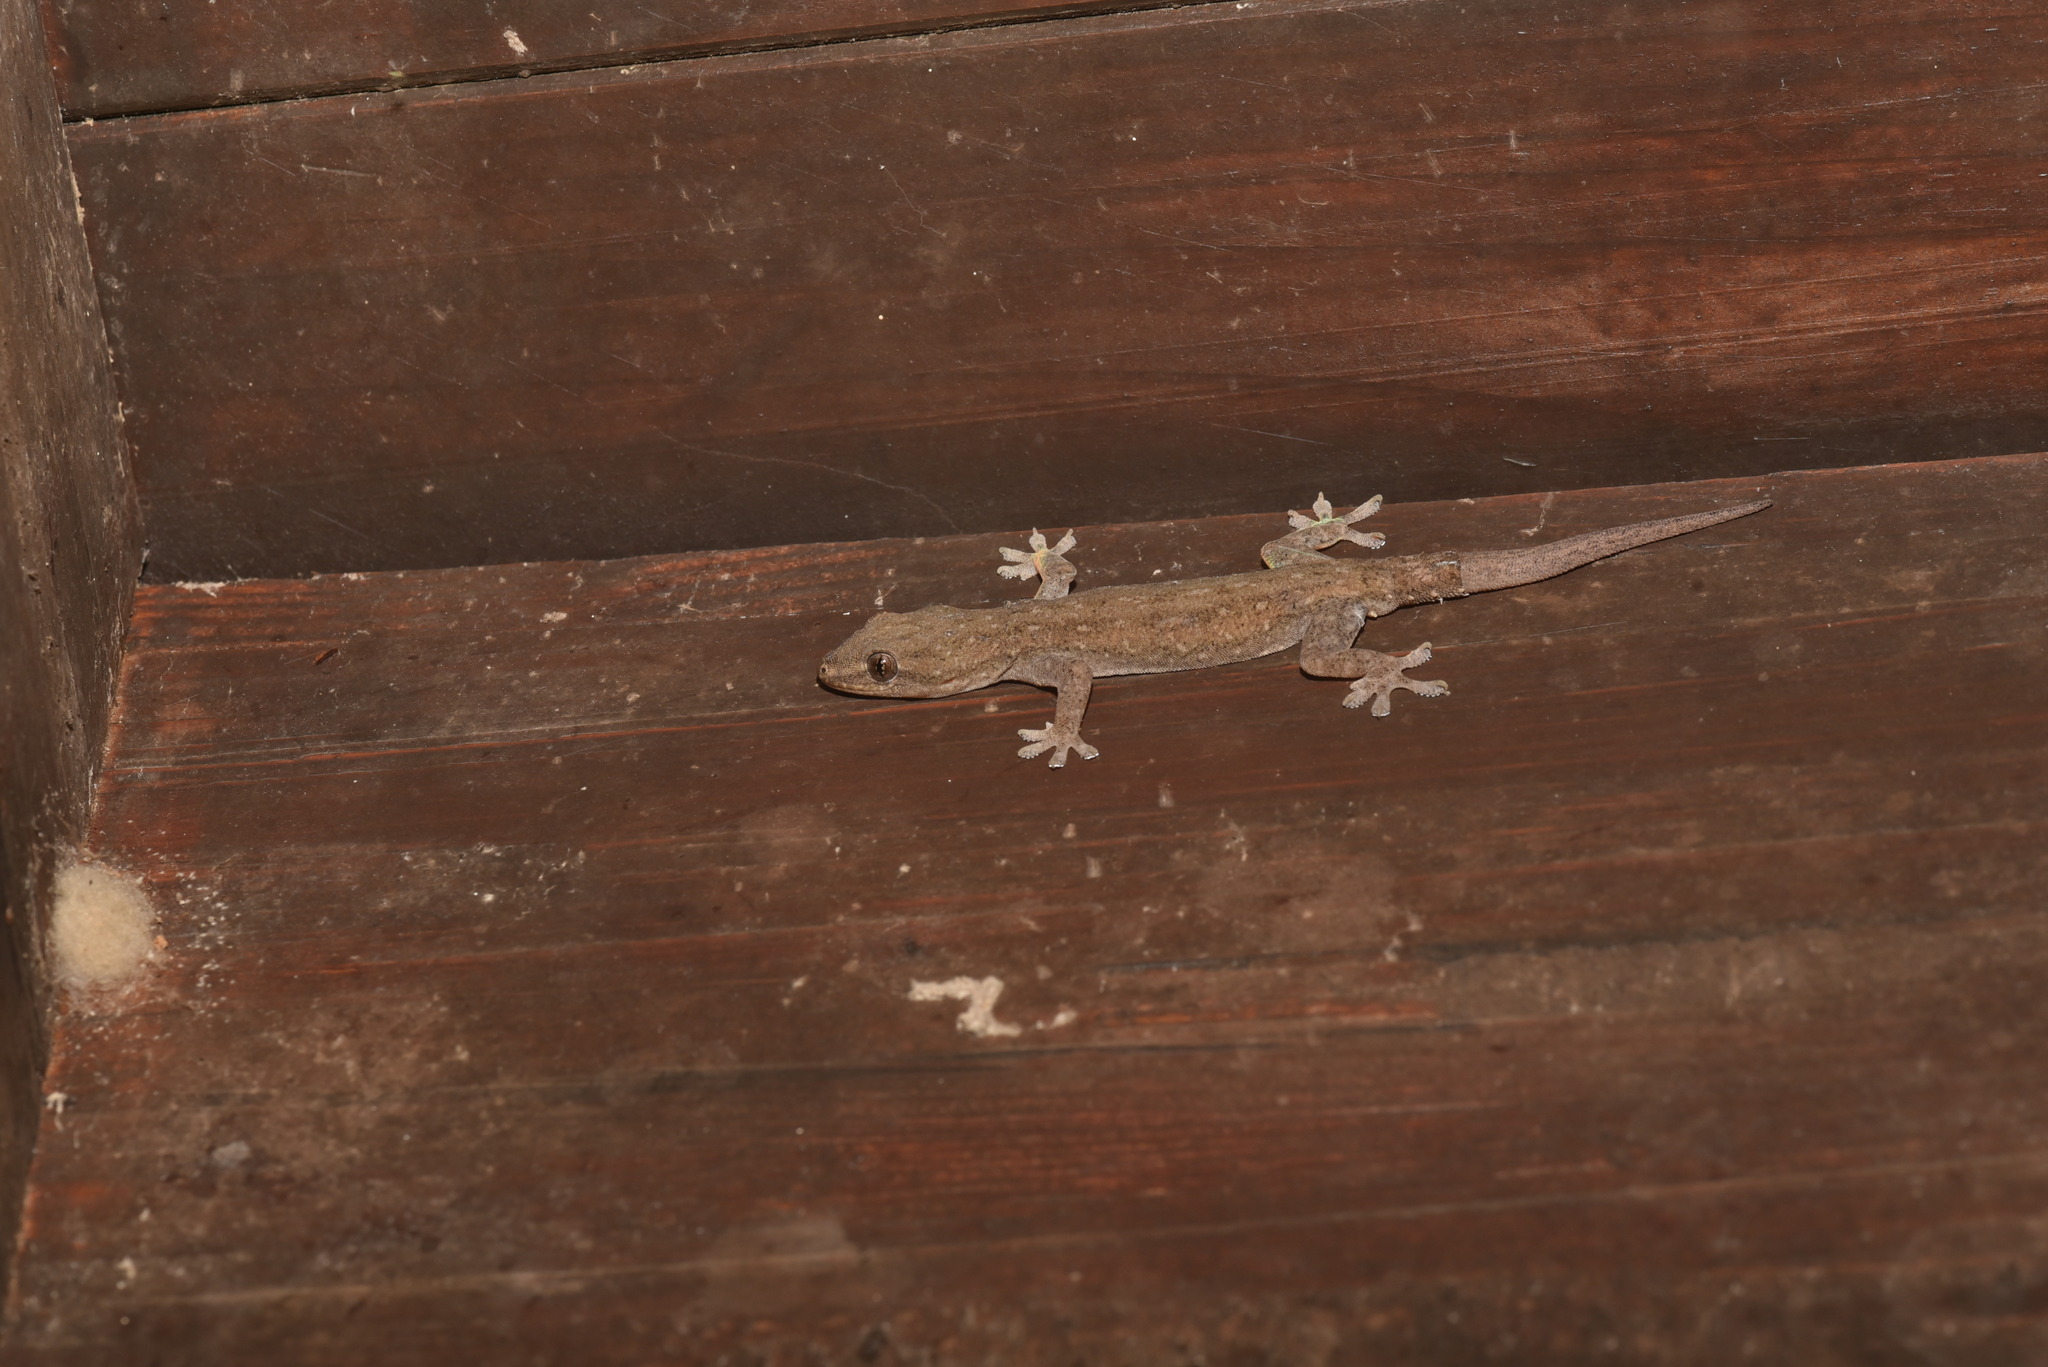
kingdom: Animalia
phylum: Chordata
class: Squamata
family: Gekkonidae
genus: Hemidactylus
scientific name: Hemidactylus frenatus
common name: Common house gecko
